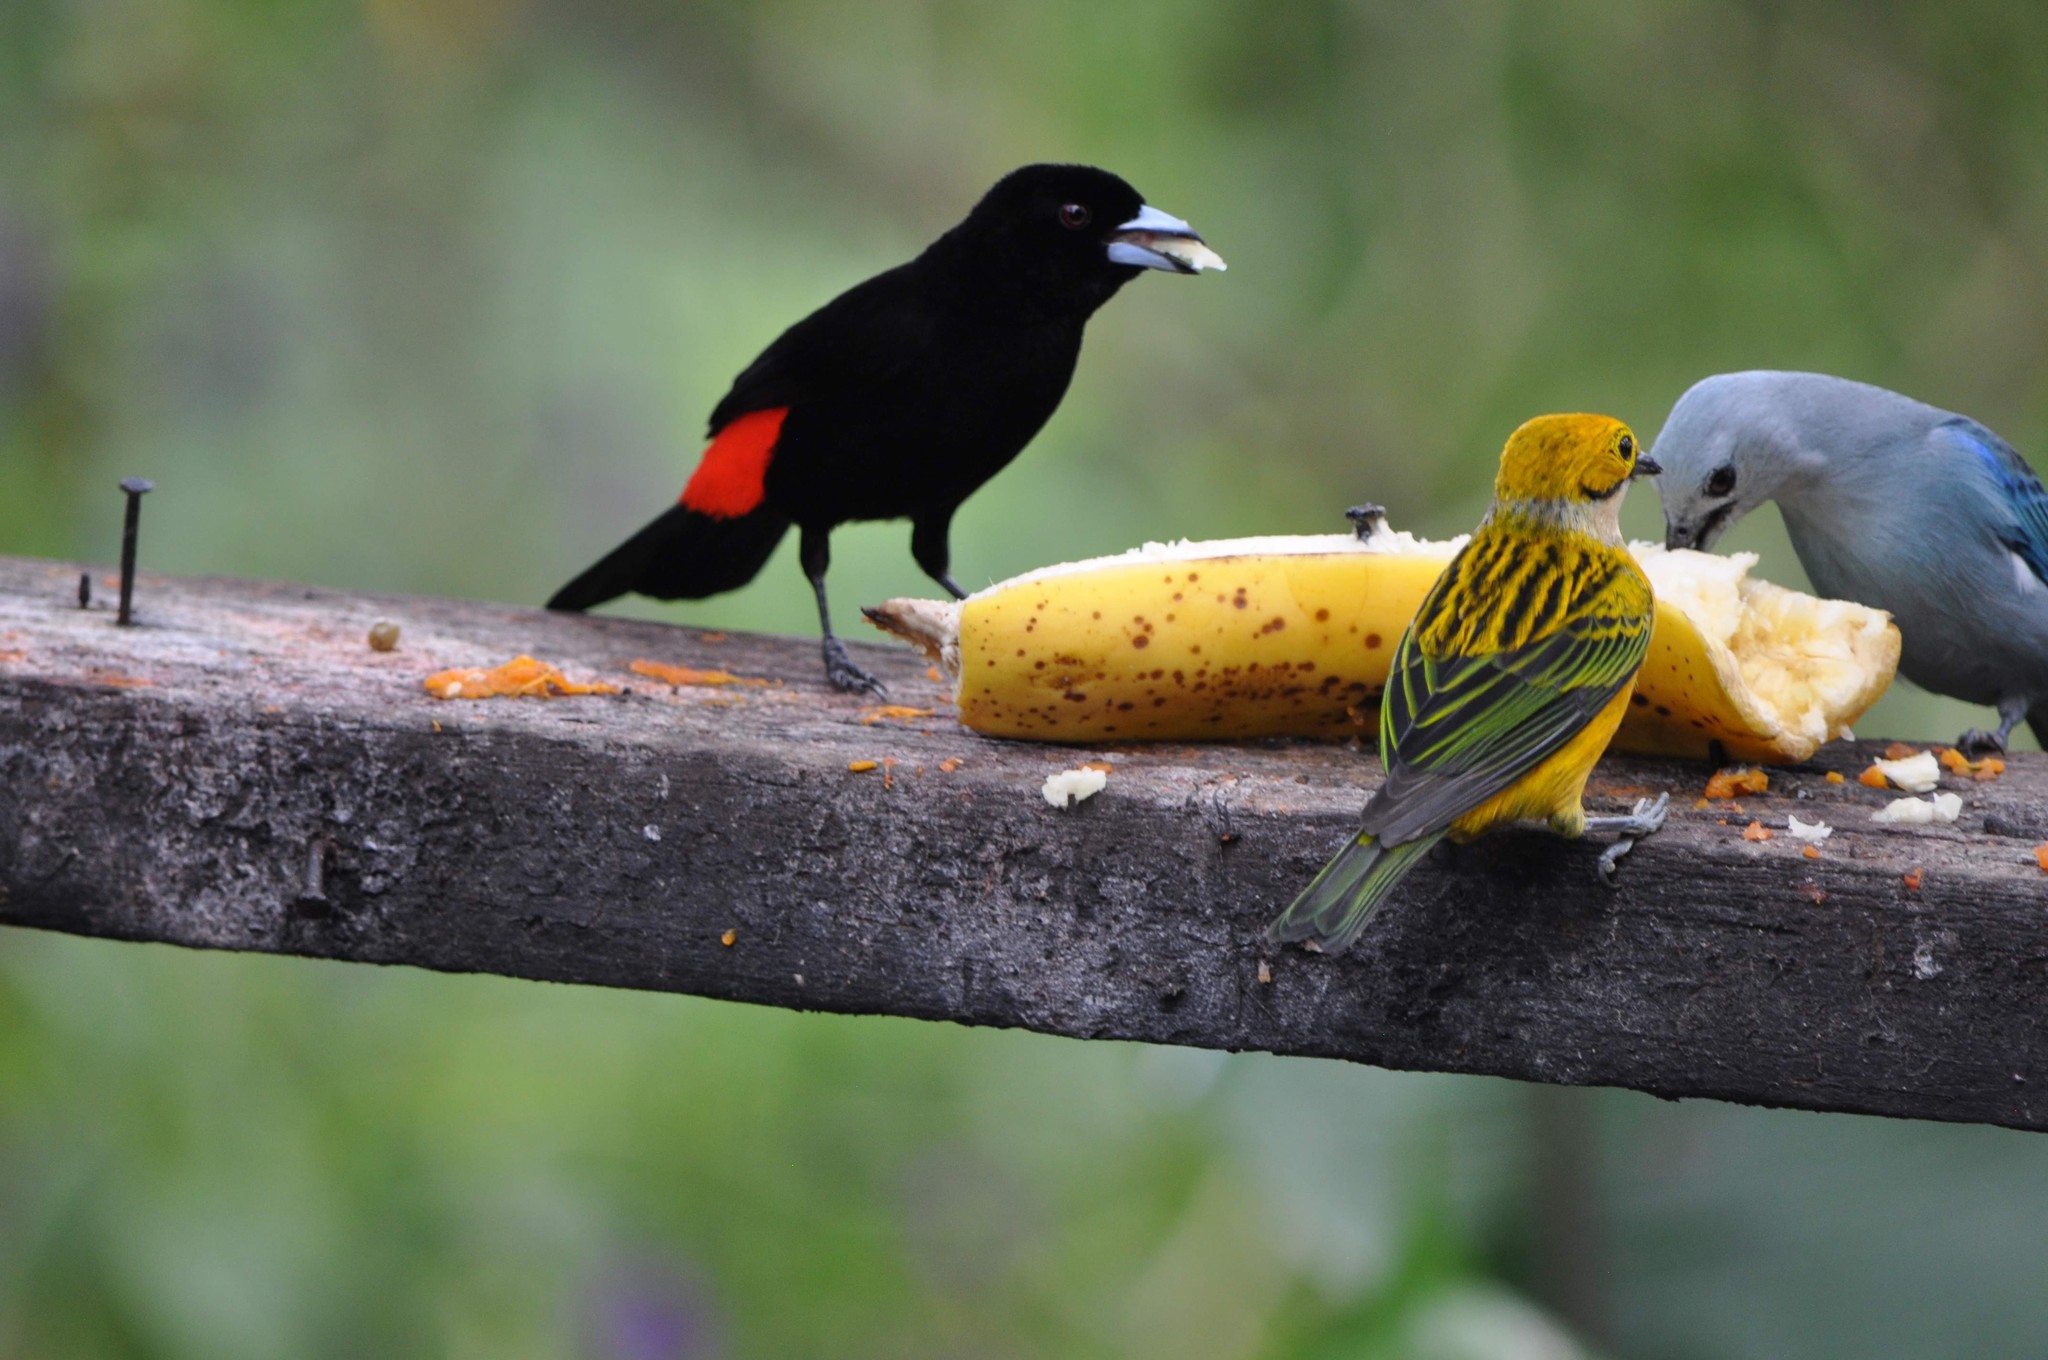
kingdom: Animalia
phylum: Chordata
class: Aves
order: Passeriformes
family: Thraupidae
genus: Ramphocelus
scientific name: Ramphocelus passerinii
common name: Passerini's tanager
